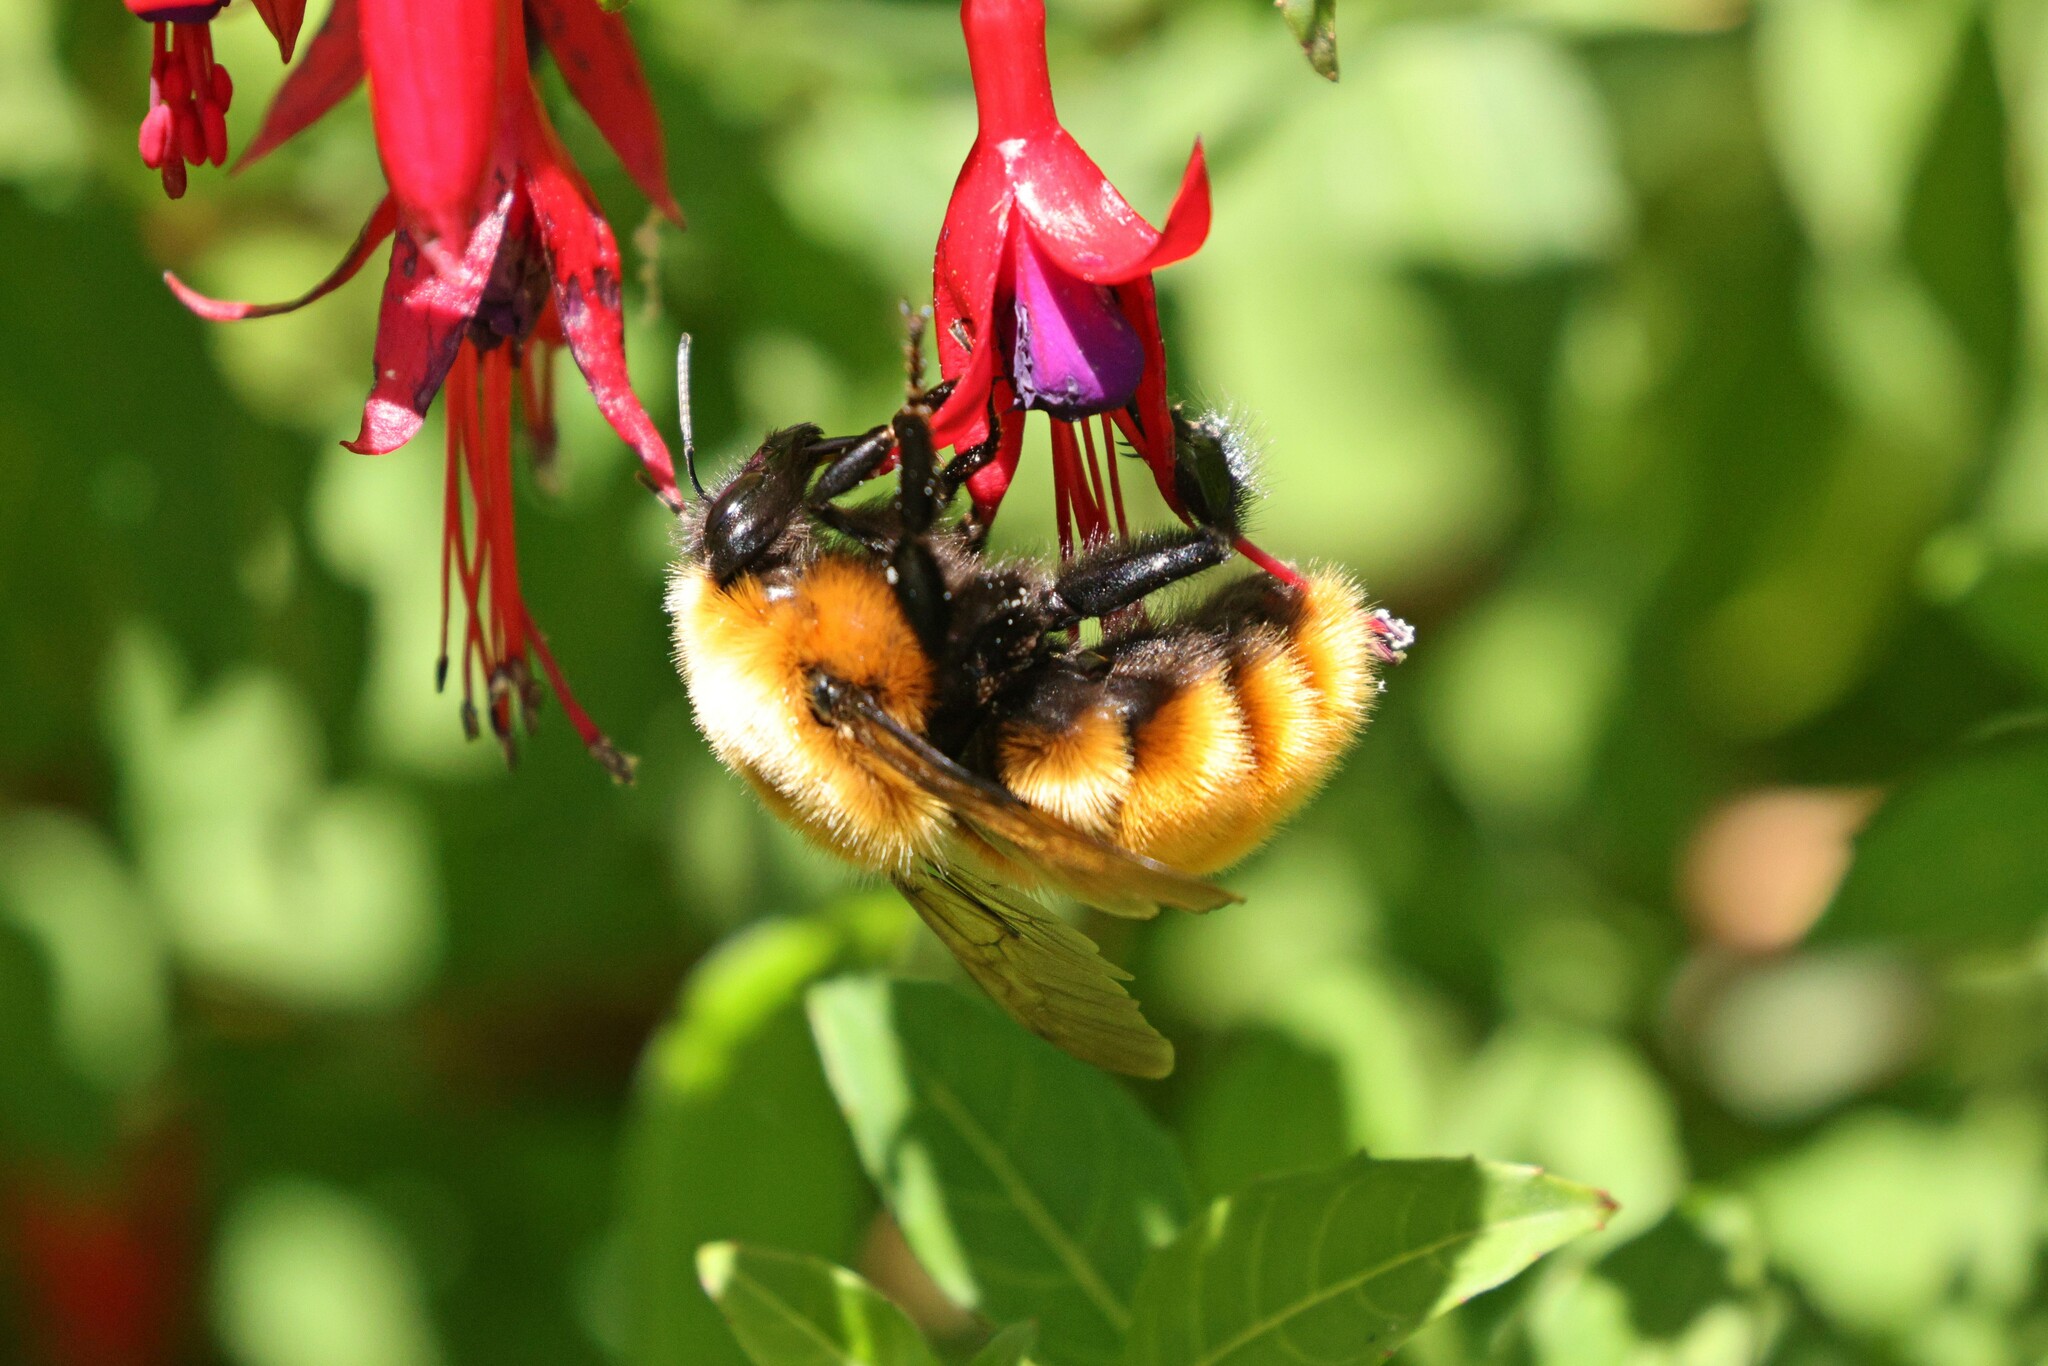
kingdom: Animalia
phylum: Arthropoda
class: Insecta
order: Hymenoptera
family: Apidae
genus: Bombus
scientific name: Bombus dahlbomii
